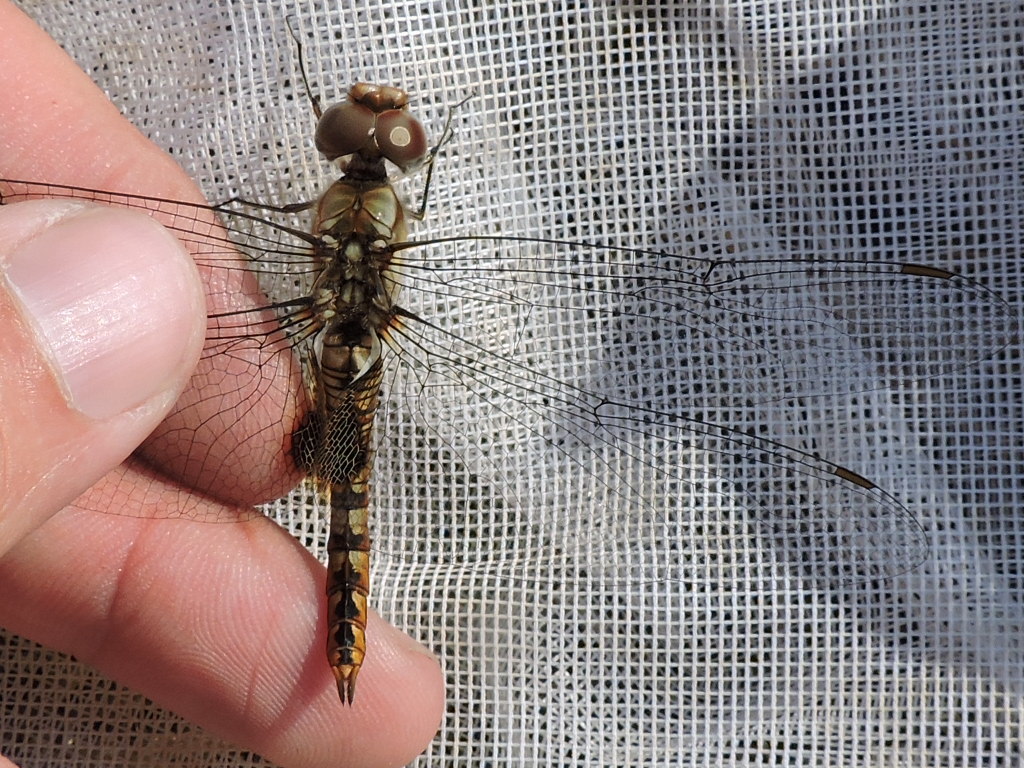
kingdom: Animalia
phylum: Arthropoda
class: Insecta
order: Odonata
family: Libellulidae
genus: Pantala
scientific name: Pantala hymenaea
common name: Spot-winged glider
